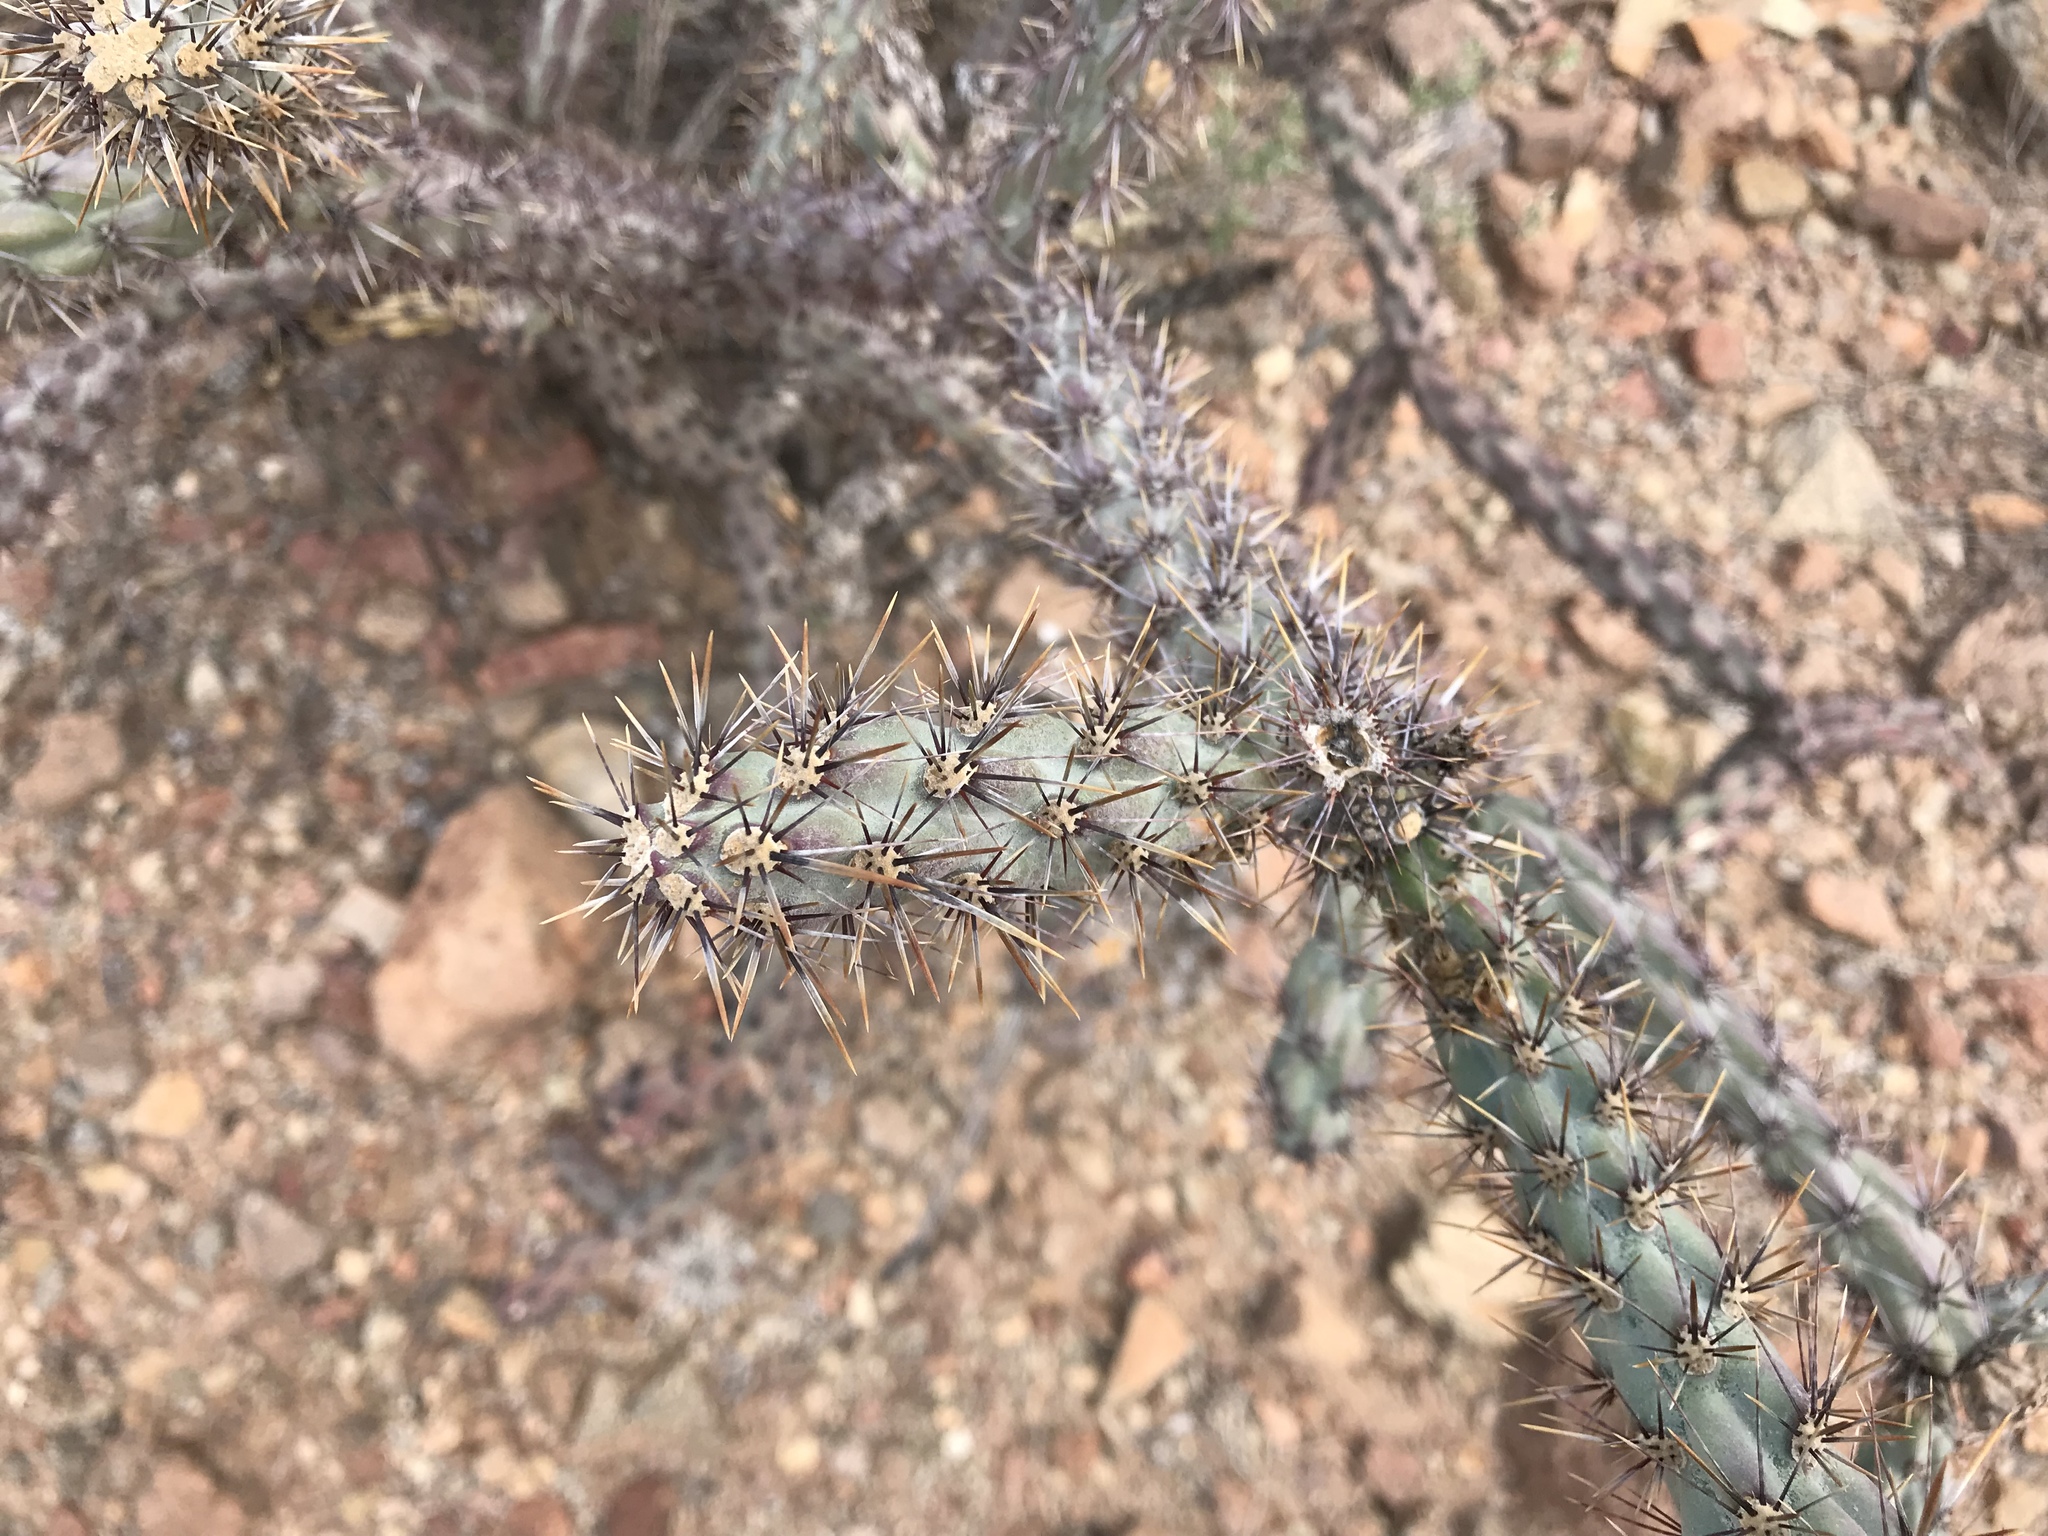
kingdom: Plantae
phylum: Tracheophyta
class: Magnoliopsida
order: Caryophyllales
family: Cactaceae
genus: Cylindropuntia
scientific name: Cylindropuntia acanthocarpa
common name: Buckhorn cholla
